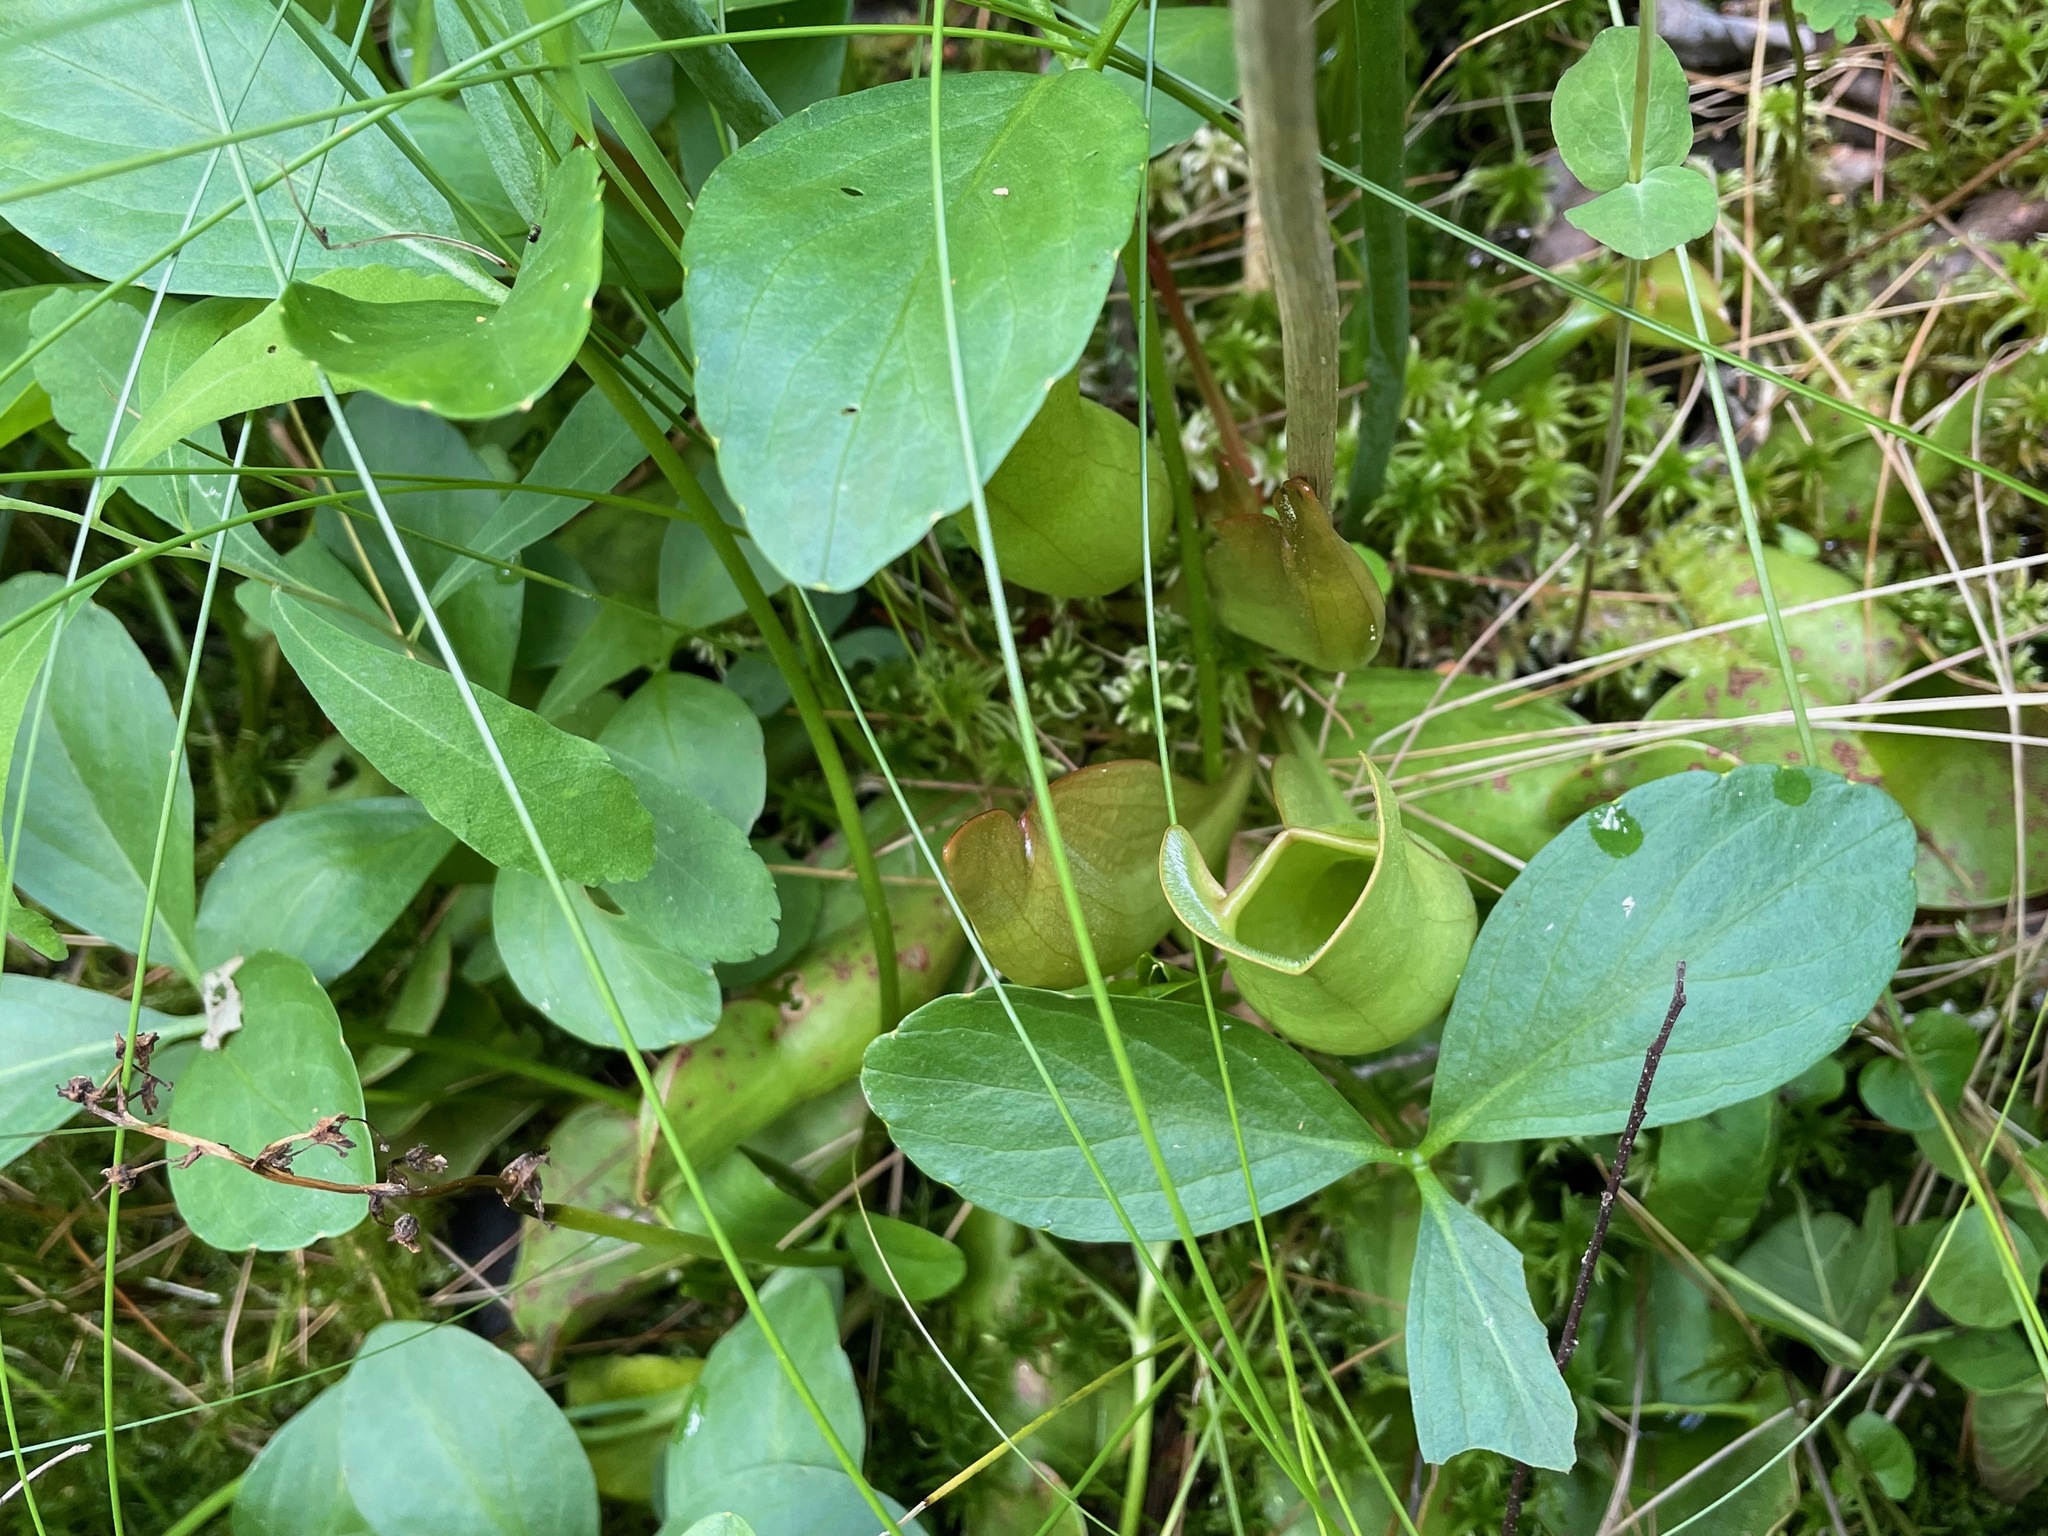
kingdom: Plantae
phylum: Tracheophyta
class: Magnoliopsida
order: Ericales
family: Sarraceniaceae
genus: Sarracenia
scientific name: Sarracenia purpurea
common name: Pitcherplant
